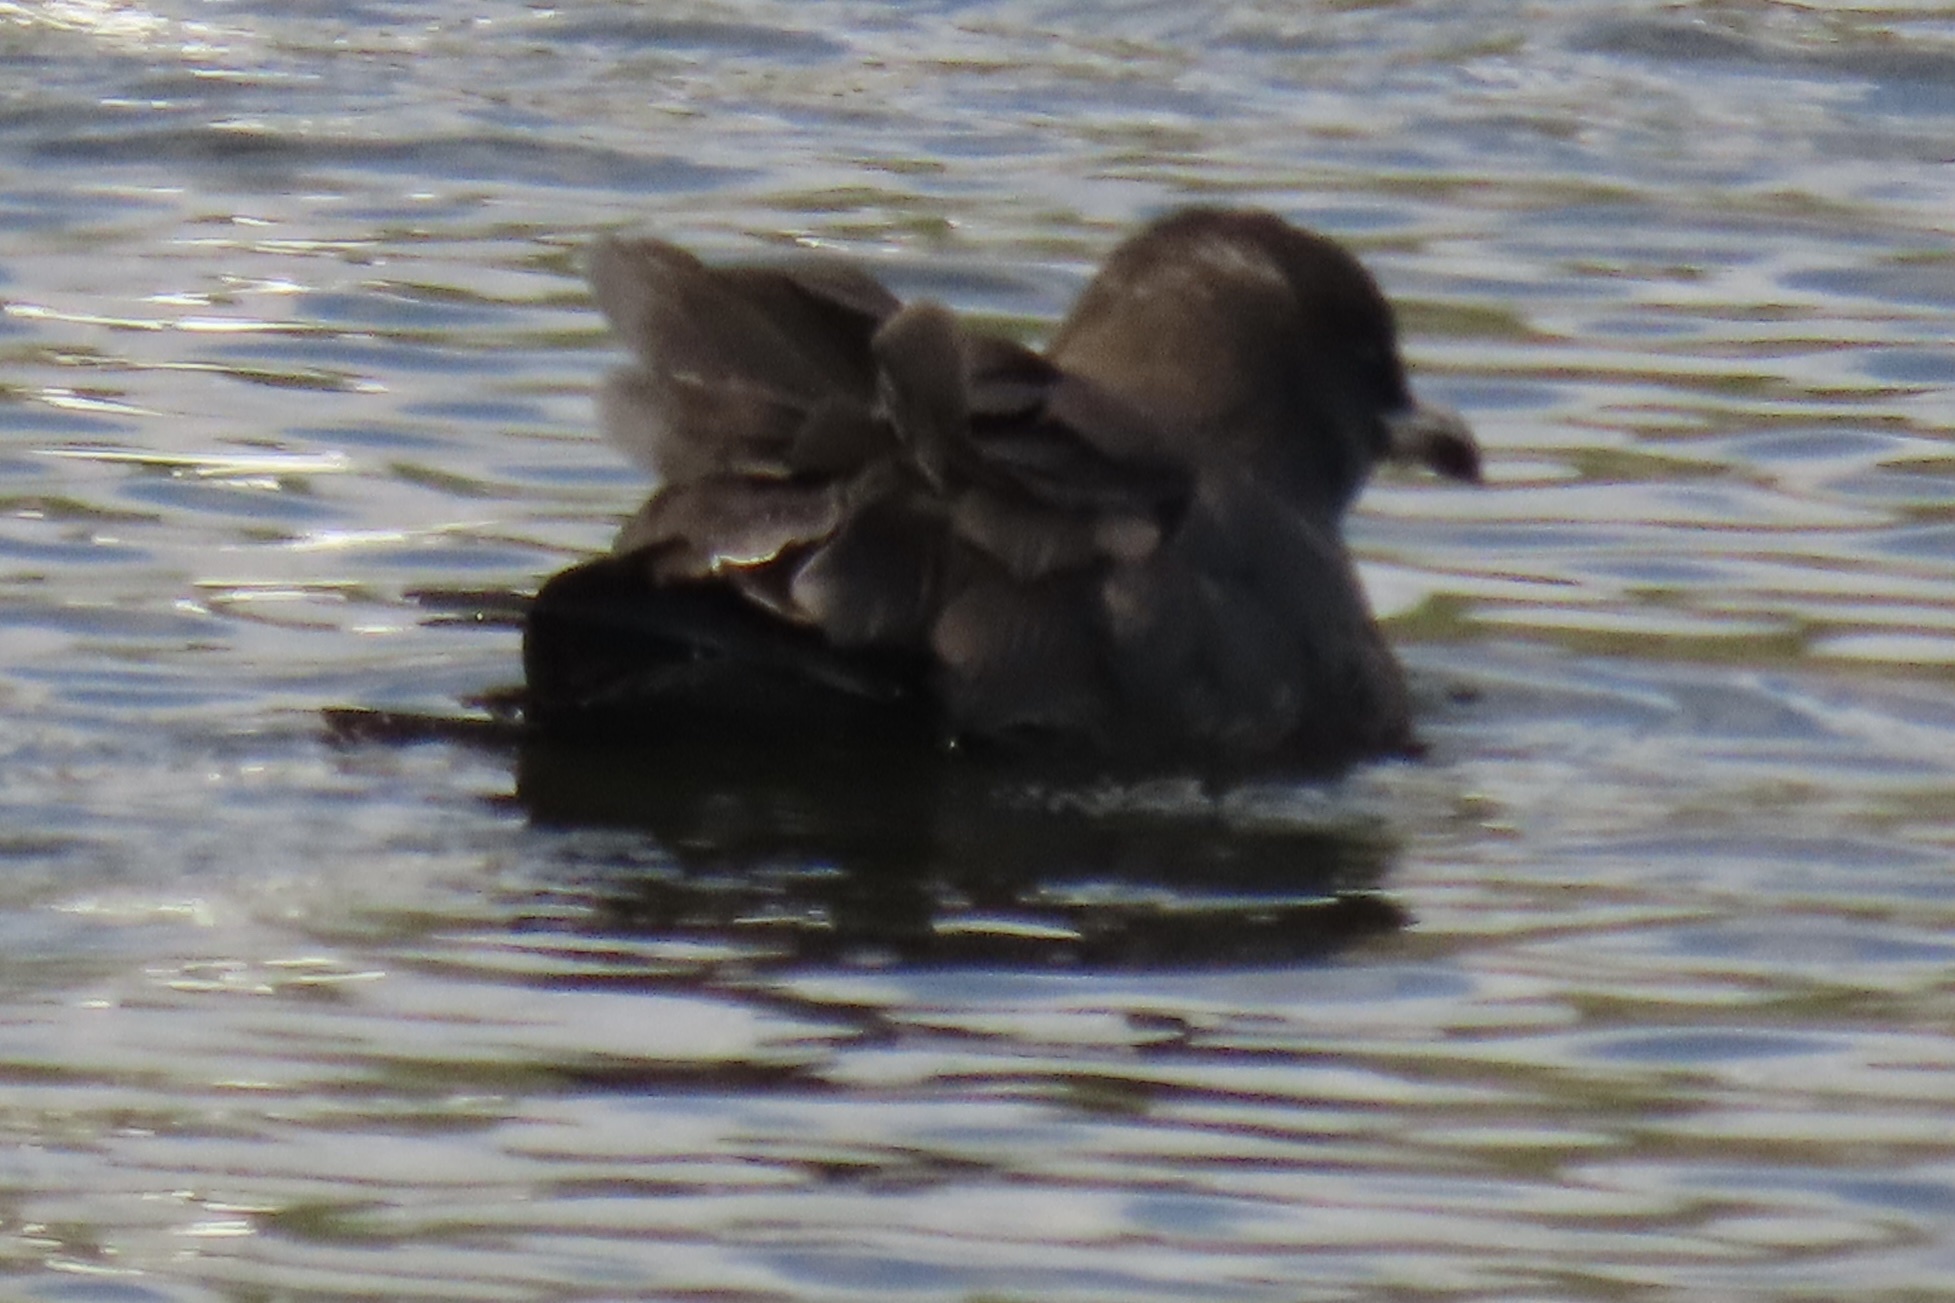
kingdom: Animalia
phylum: Chordata
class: Aves
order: Charadriiformes
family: Laridae
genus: Larus
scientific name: Larus heermanni
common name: Heermann's gull
